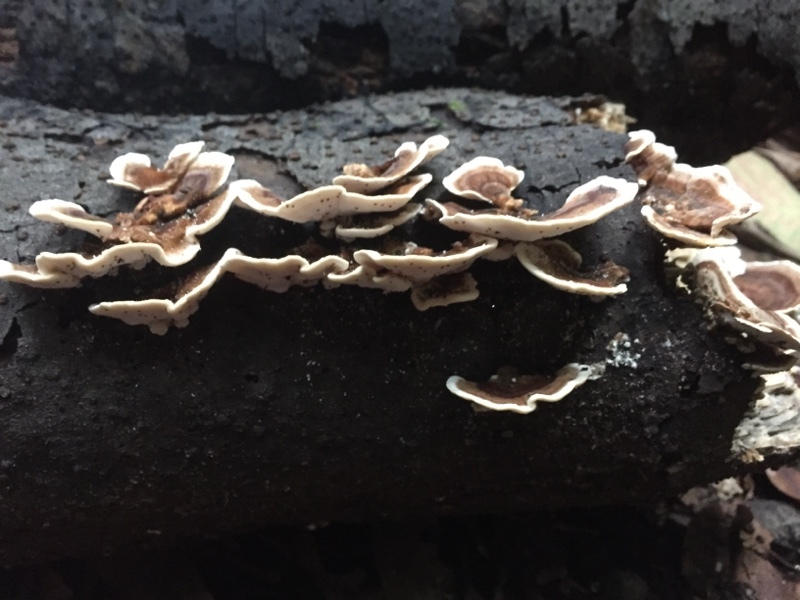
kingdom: Fungi
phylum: Basidiomycota
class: Agaricomycetes
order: Polyporales
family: Polyporaceae
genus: Trametes
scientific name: Trametes versicolor
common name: Turkeytail
